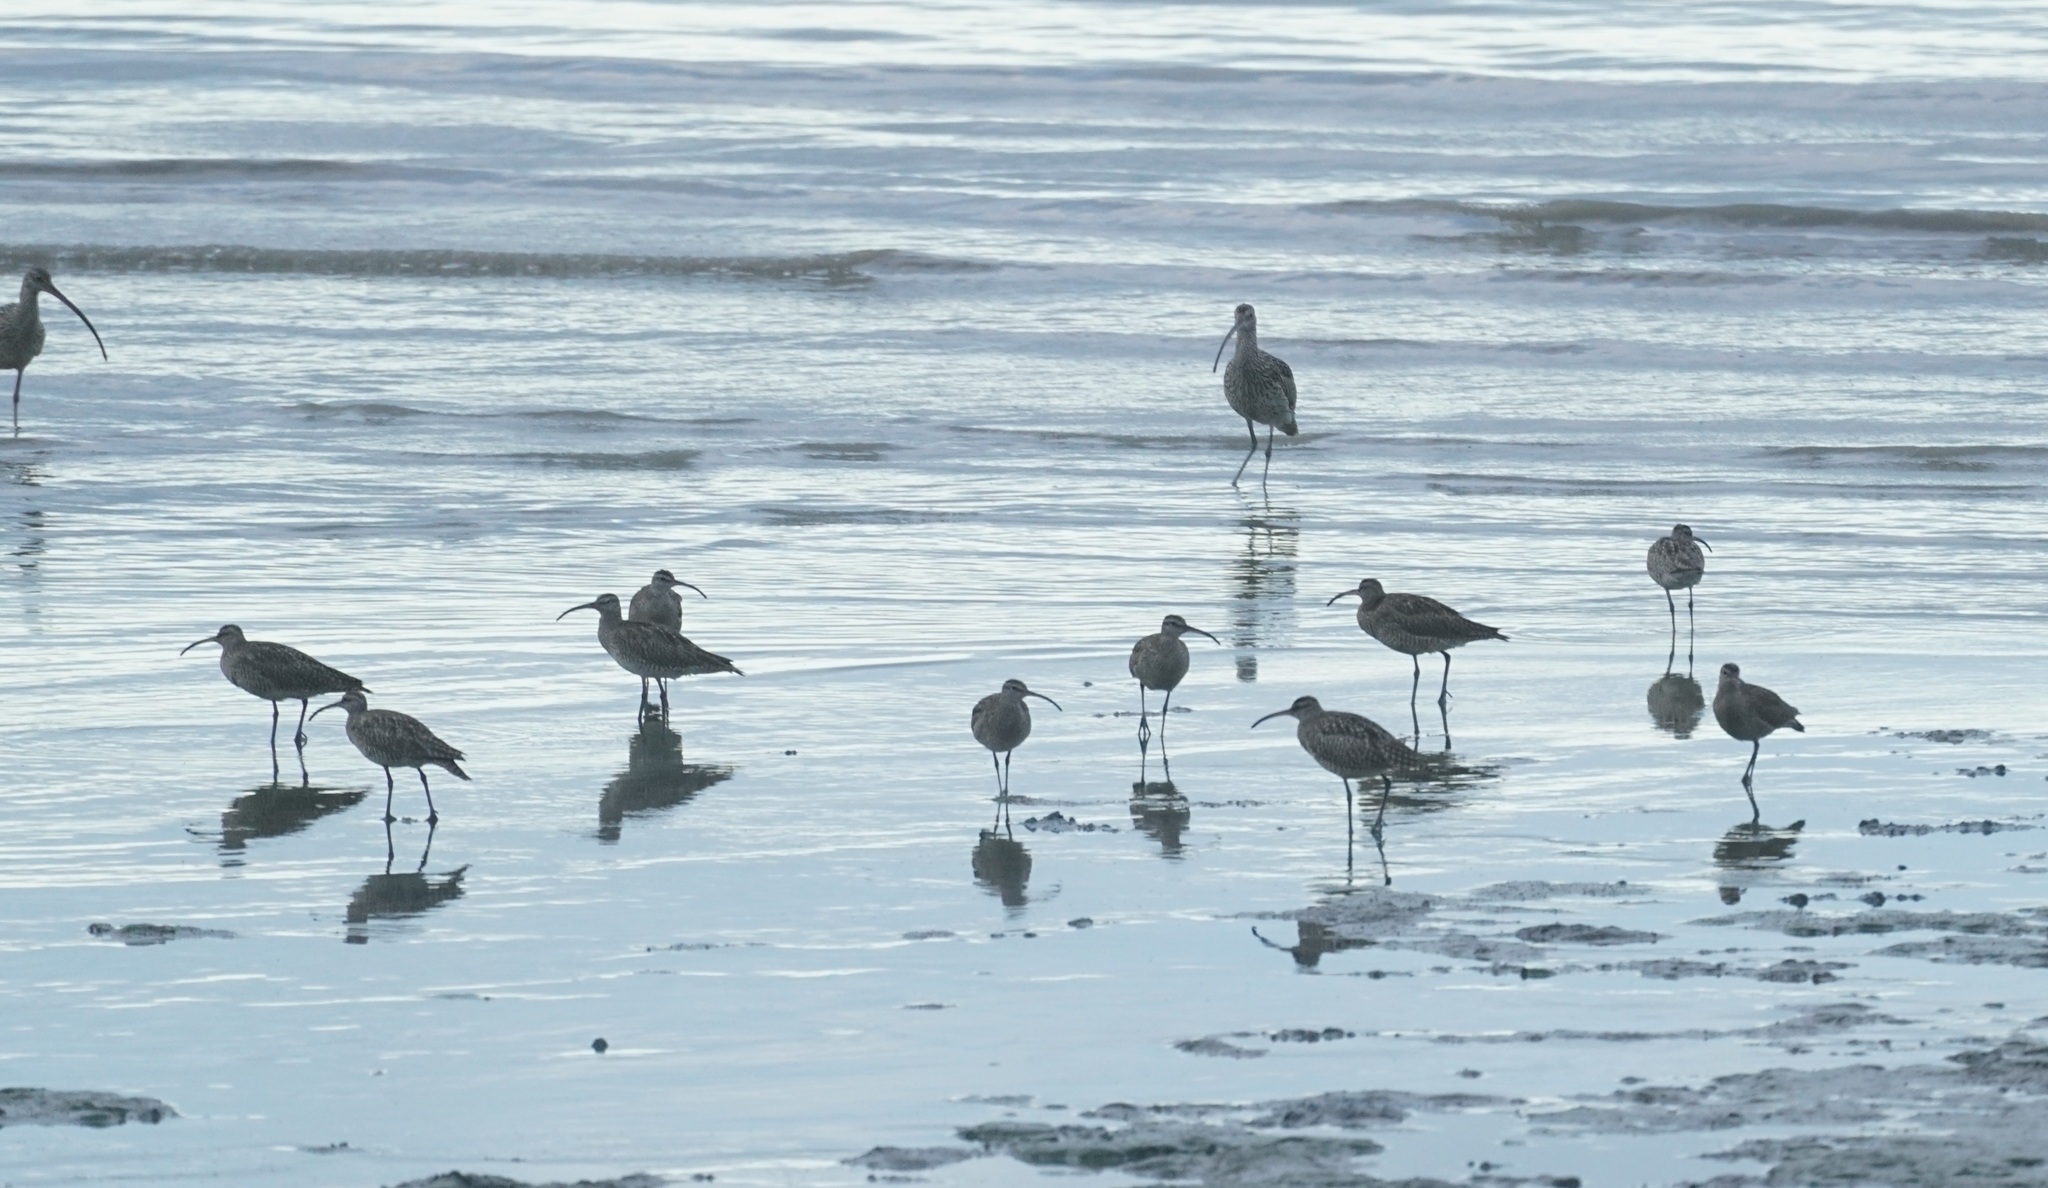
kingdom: Animalia
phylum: Chordata
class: Aves
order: Charadriiformes
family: Scolopacidae
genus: Numenius
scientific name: Numenius phaeopus
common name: Whimbrel
